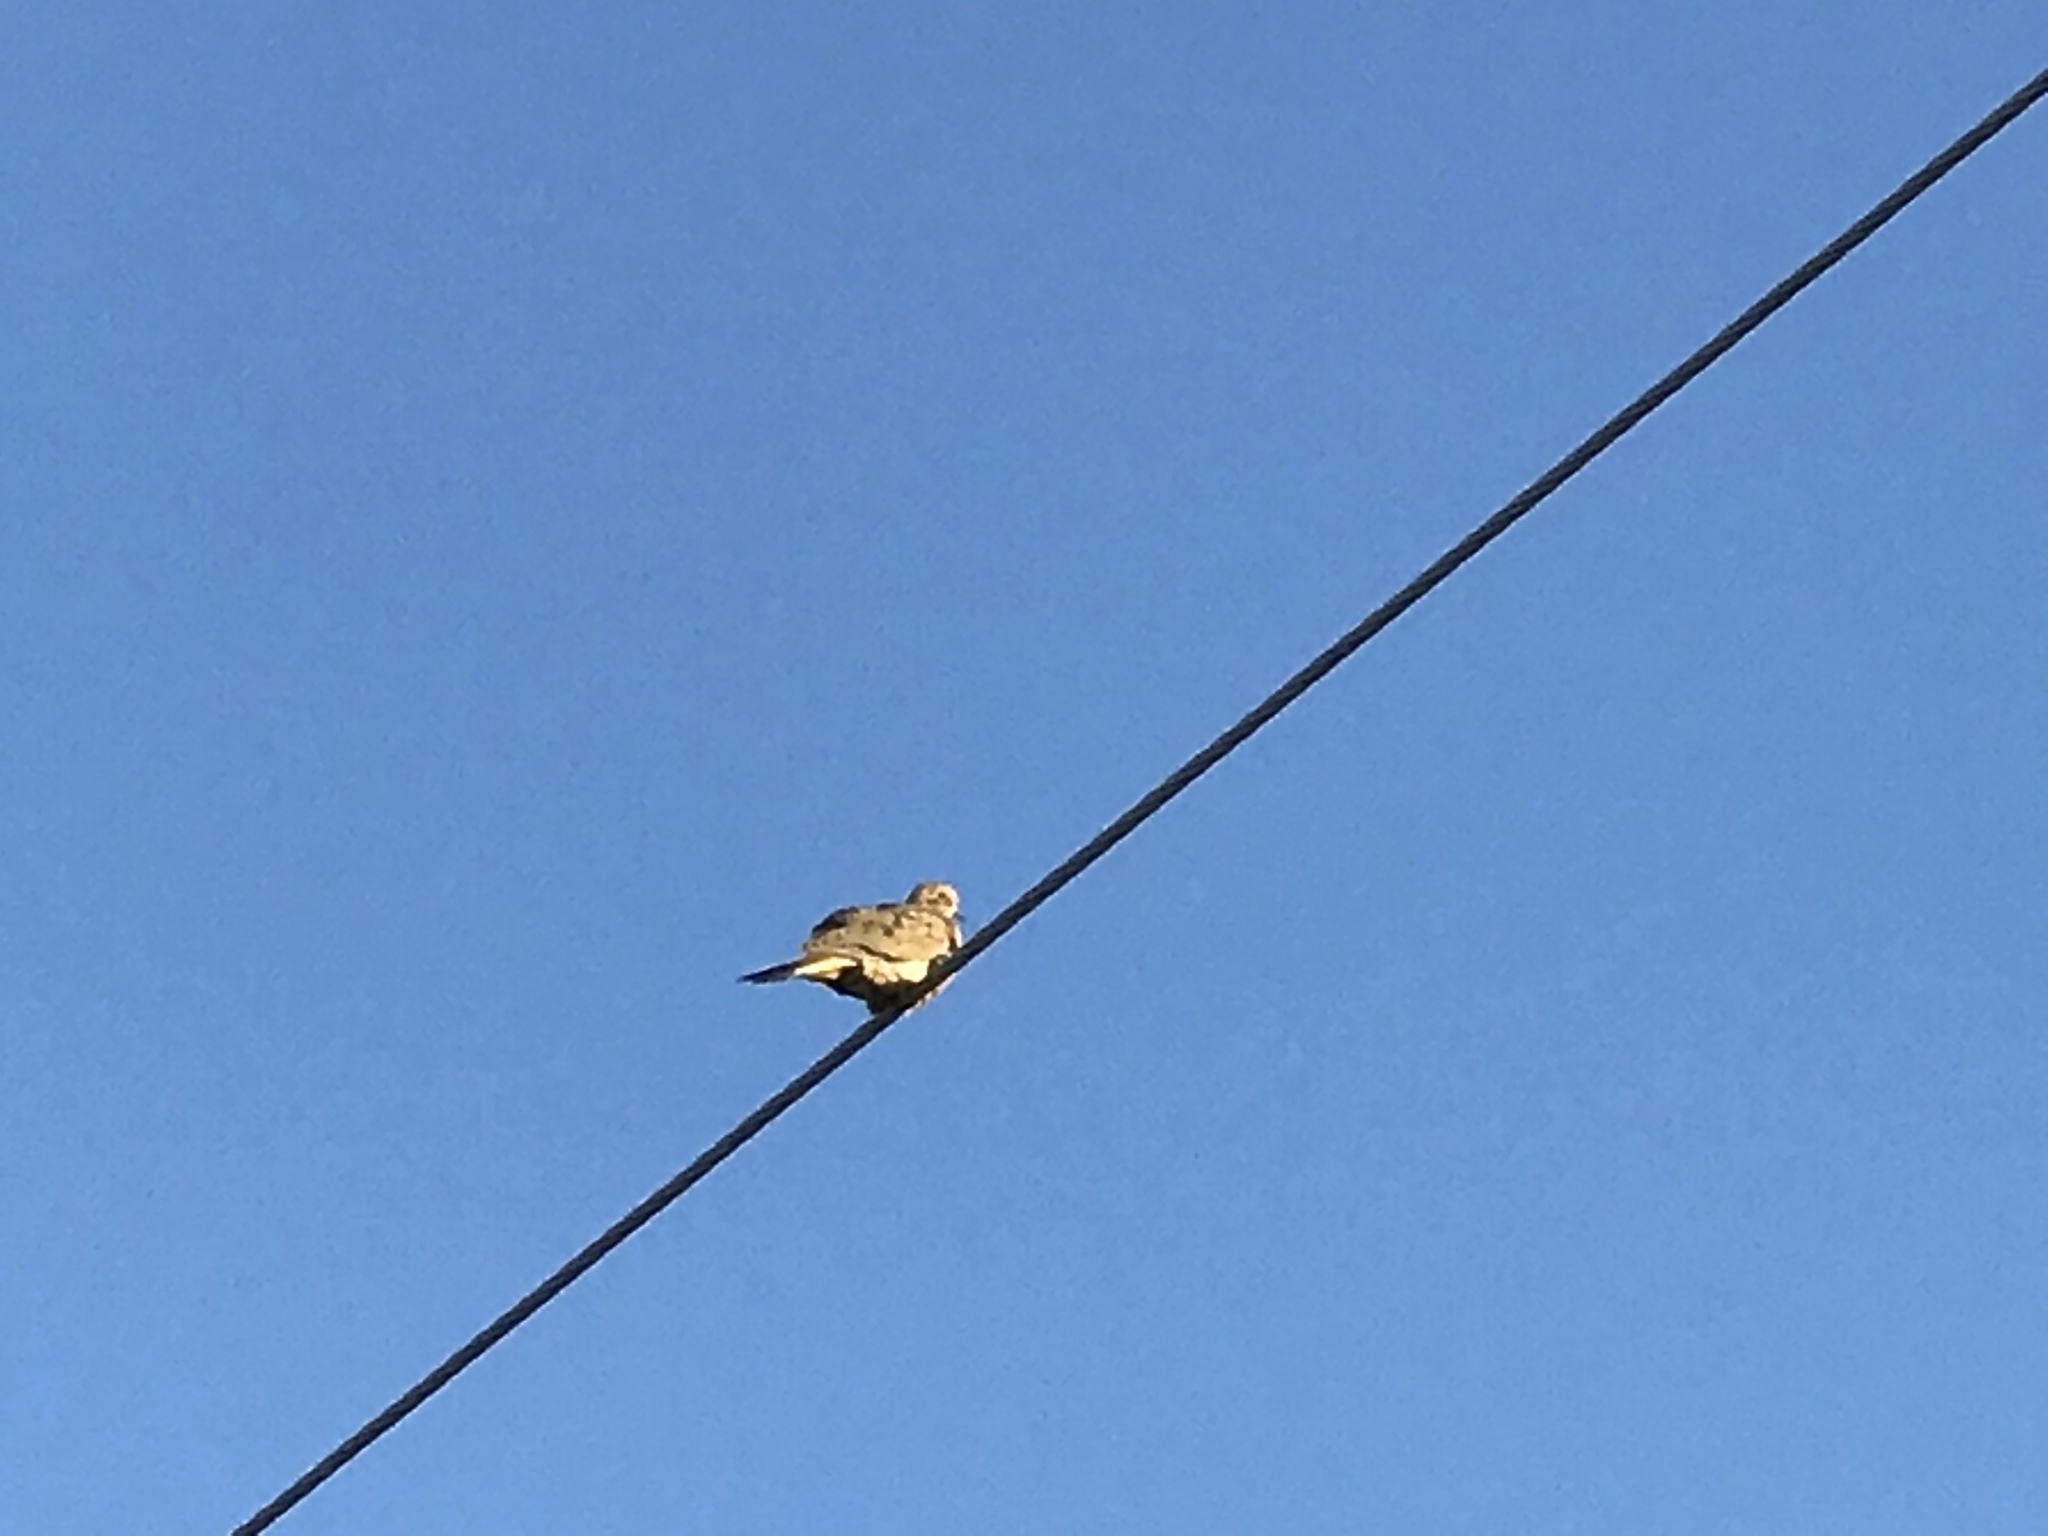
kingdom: Animalia
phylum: Chordata
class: Aves
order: Columbiformes
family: Columbidae
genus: Zenaida
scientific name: Zenaida macroura
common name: Mourning dove
